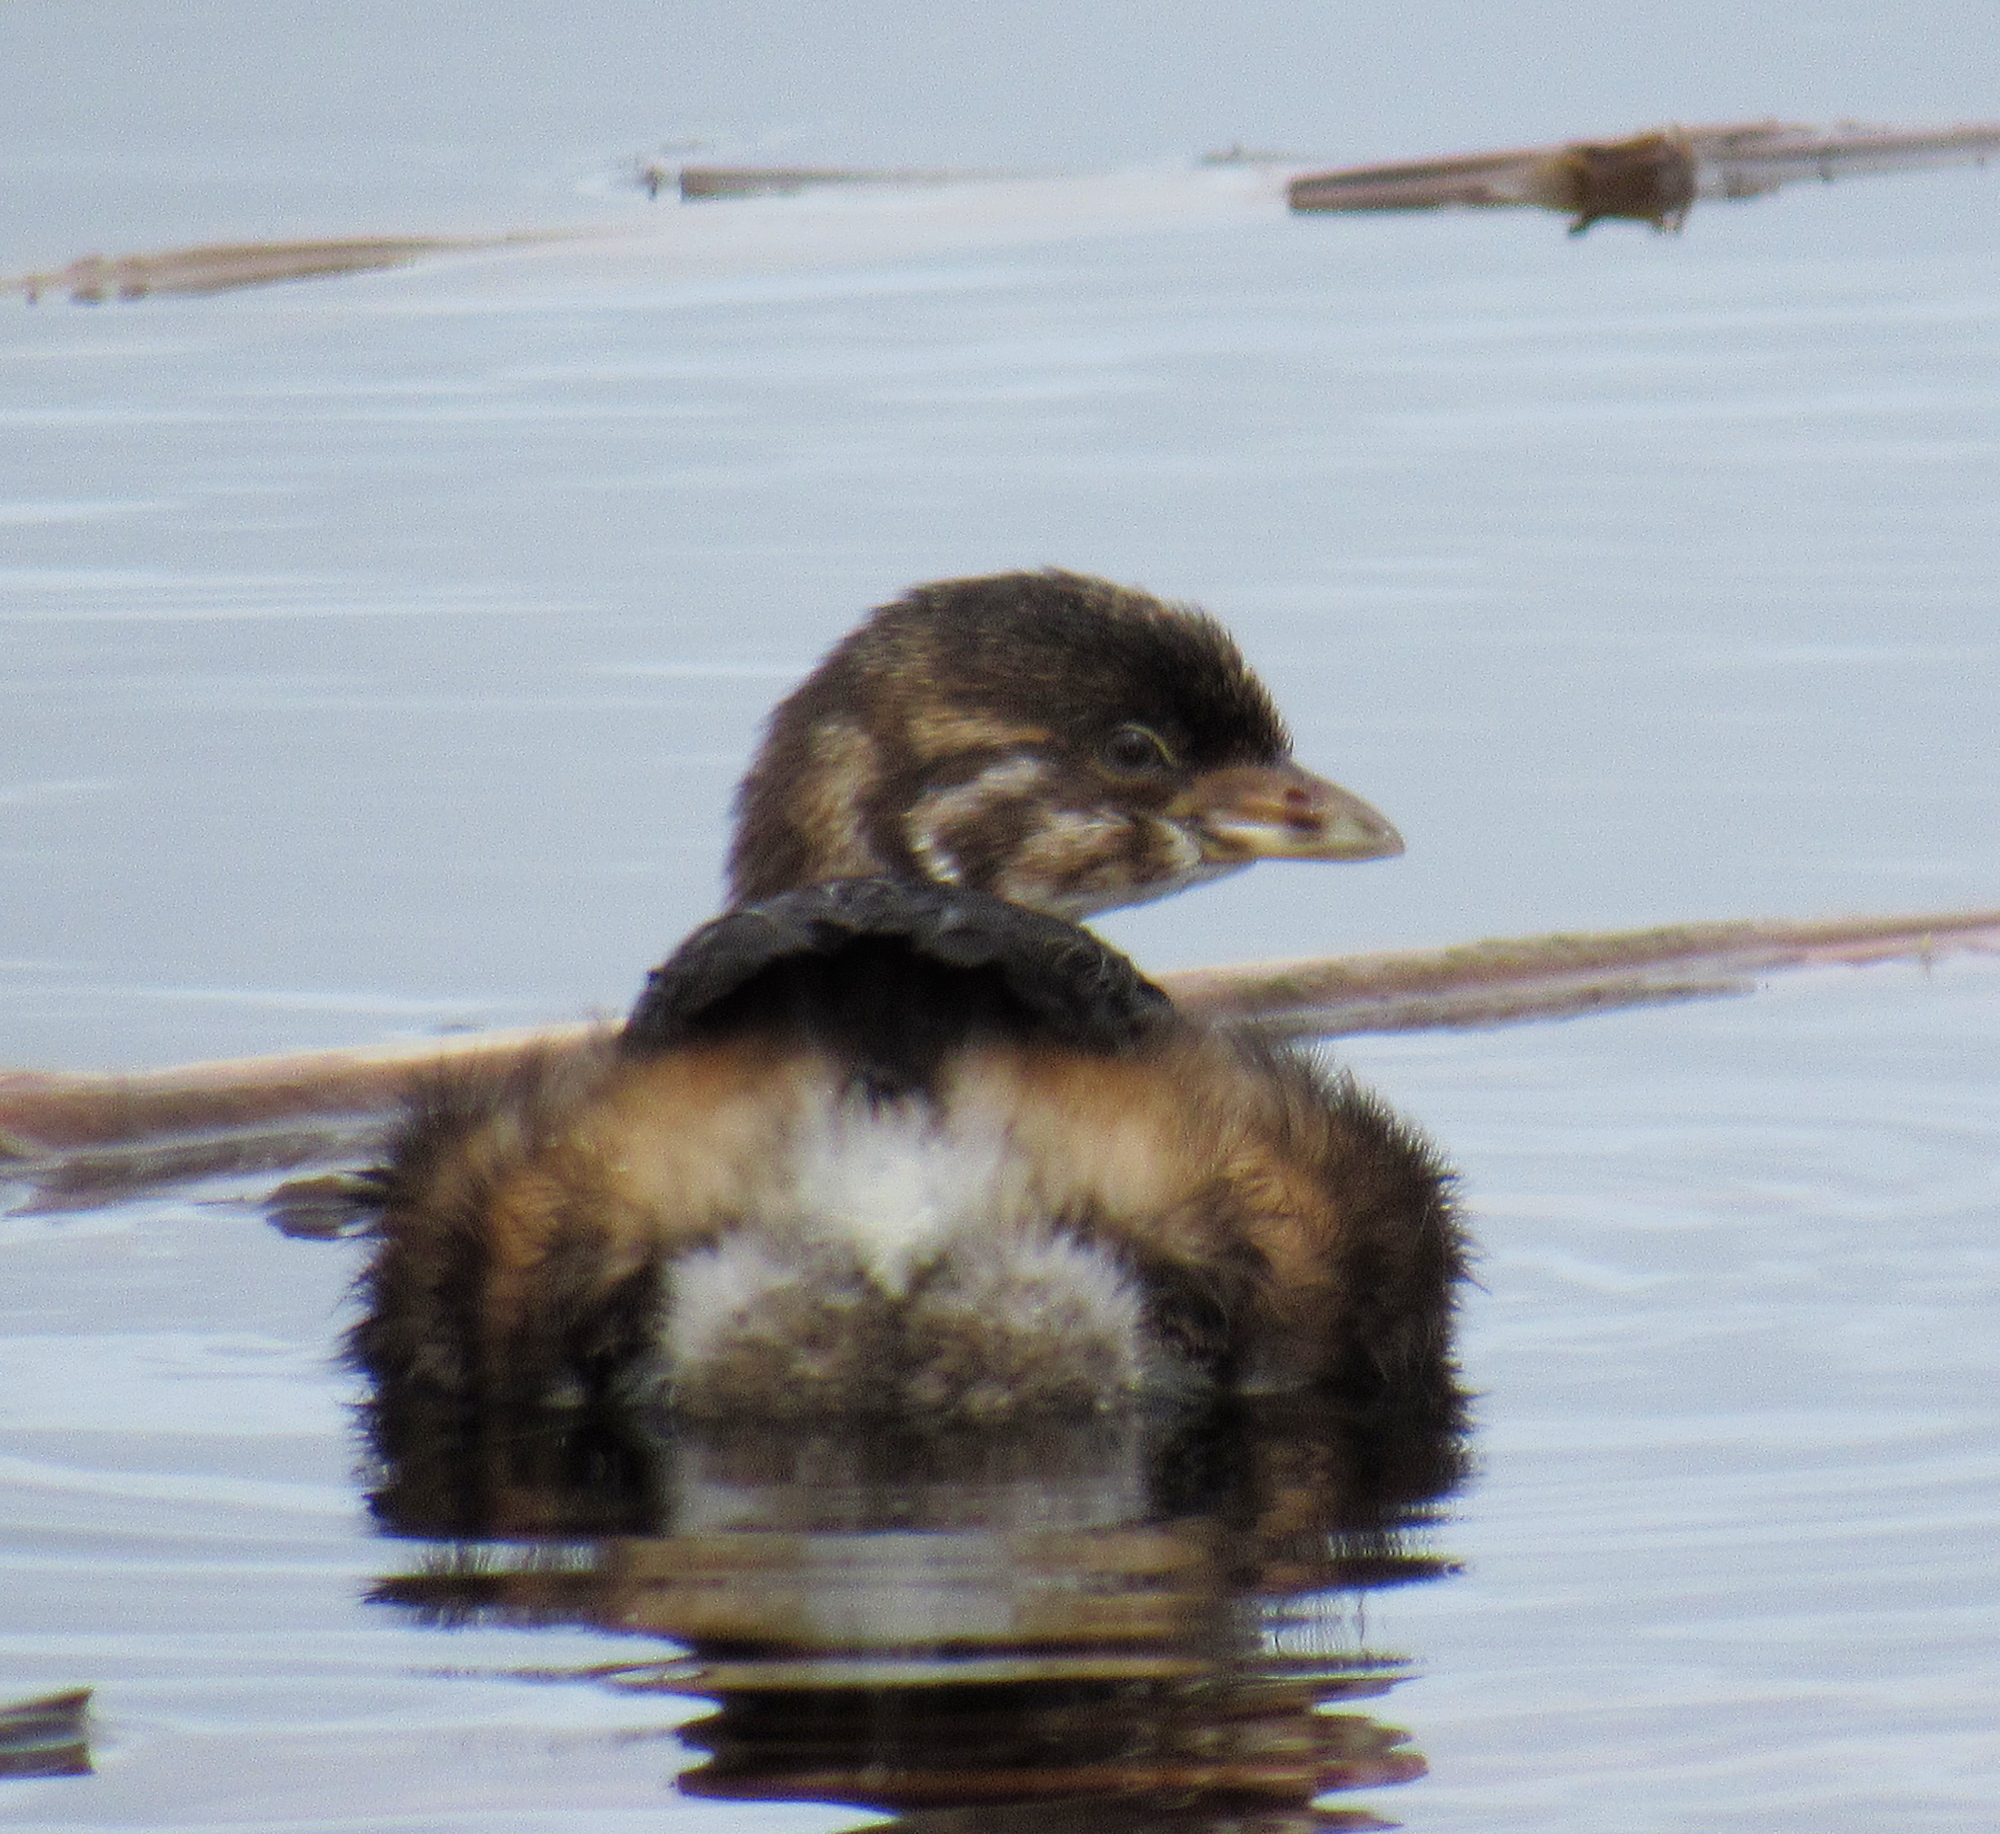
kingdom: Animalia
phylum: Chordata
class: Aves
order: Podicipediformes
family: Podicipedidae
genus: Podilymbus
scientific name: Podilymbus podiceps
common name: Pied-billed grebe
